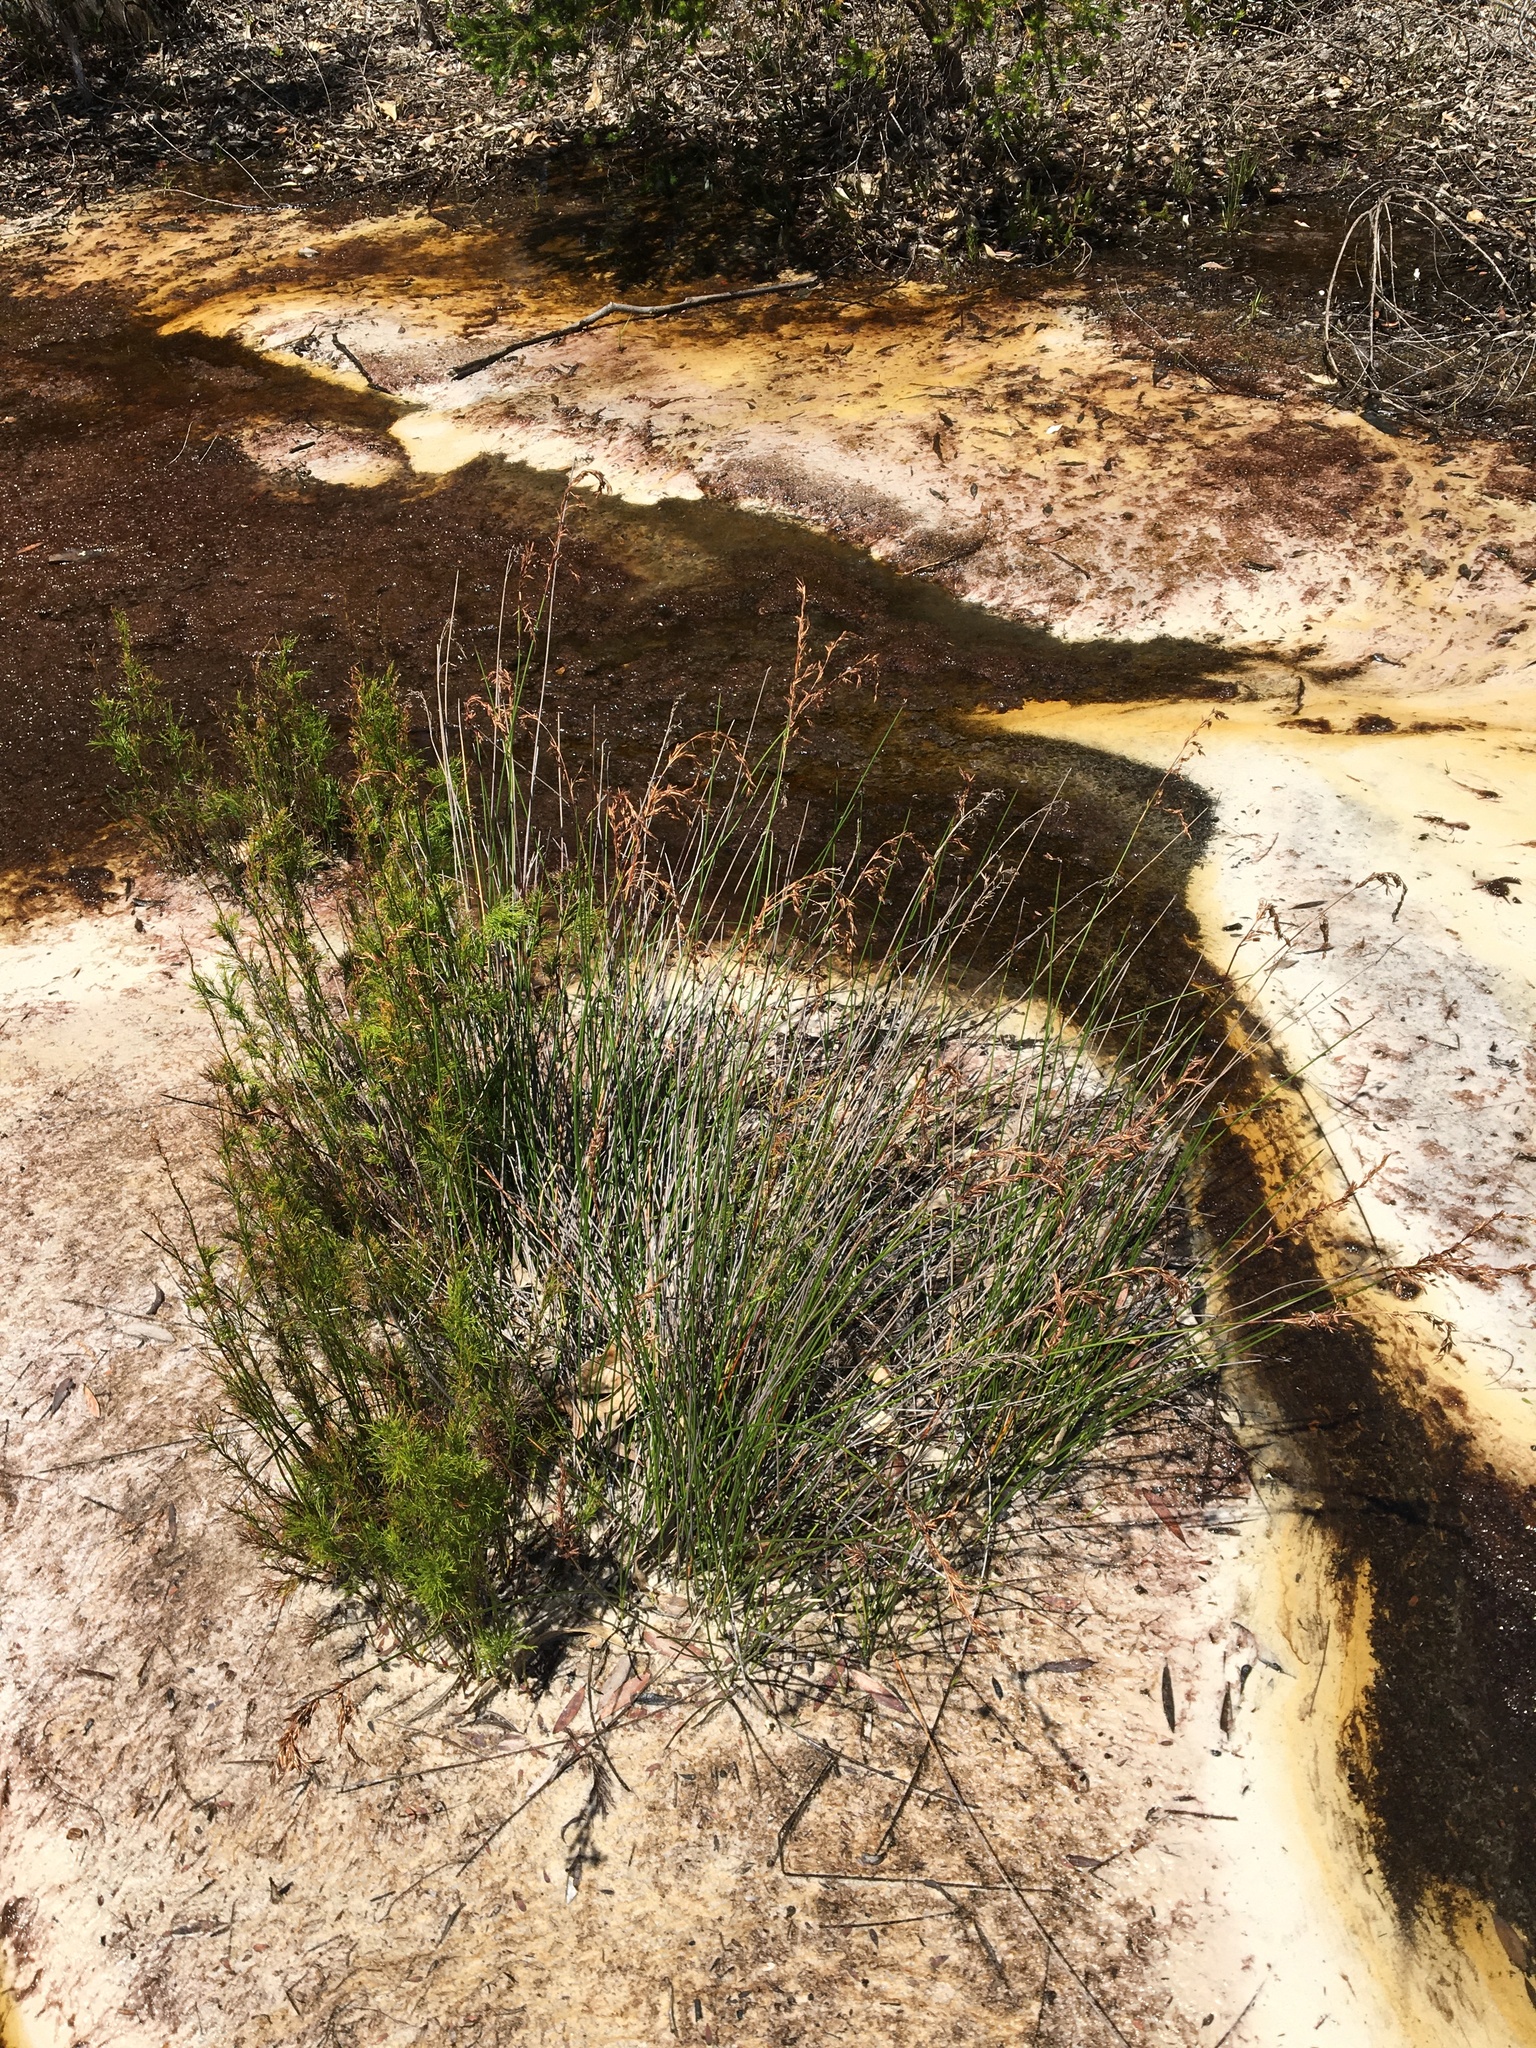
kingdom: Plantae
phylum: Tracheophyta
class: Liliopsida
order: Poales
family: Cyperaceae
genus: Schoenus
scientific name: Schoenus brevifolius
